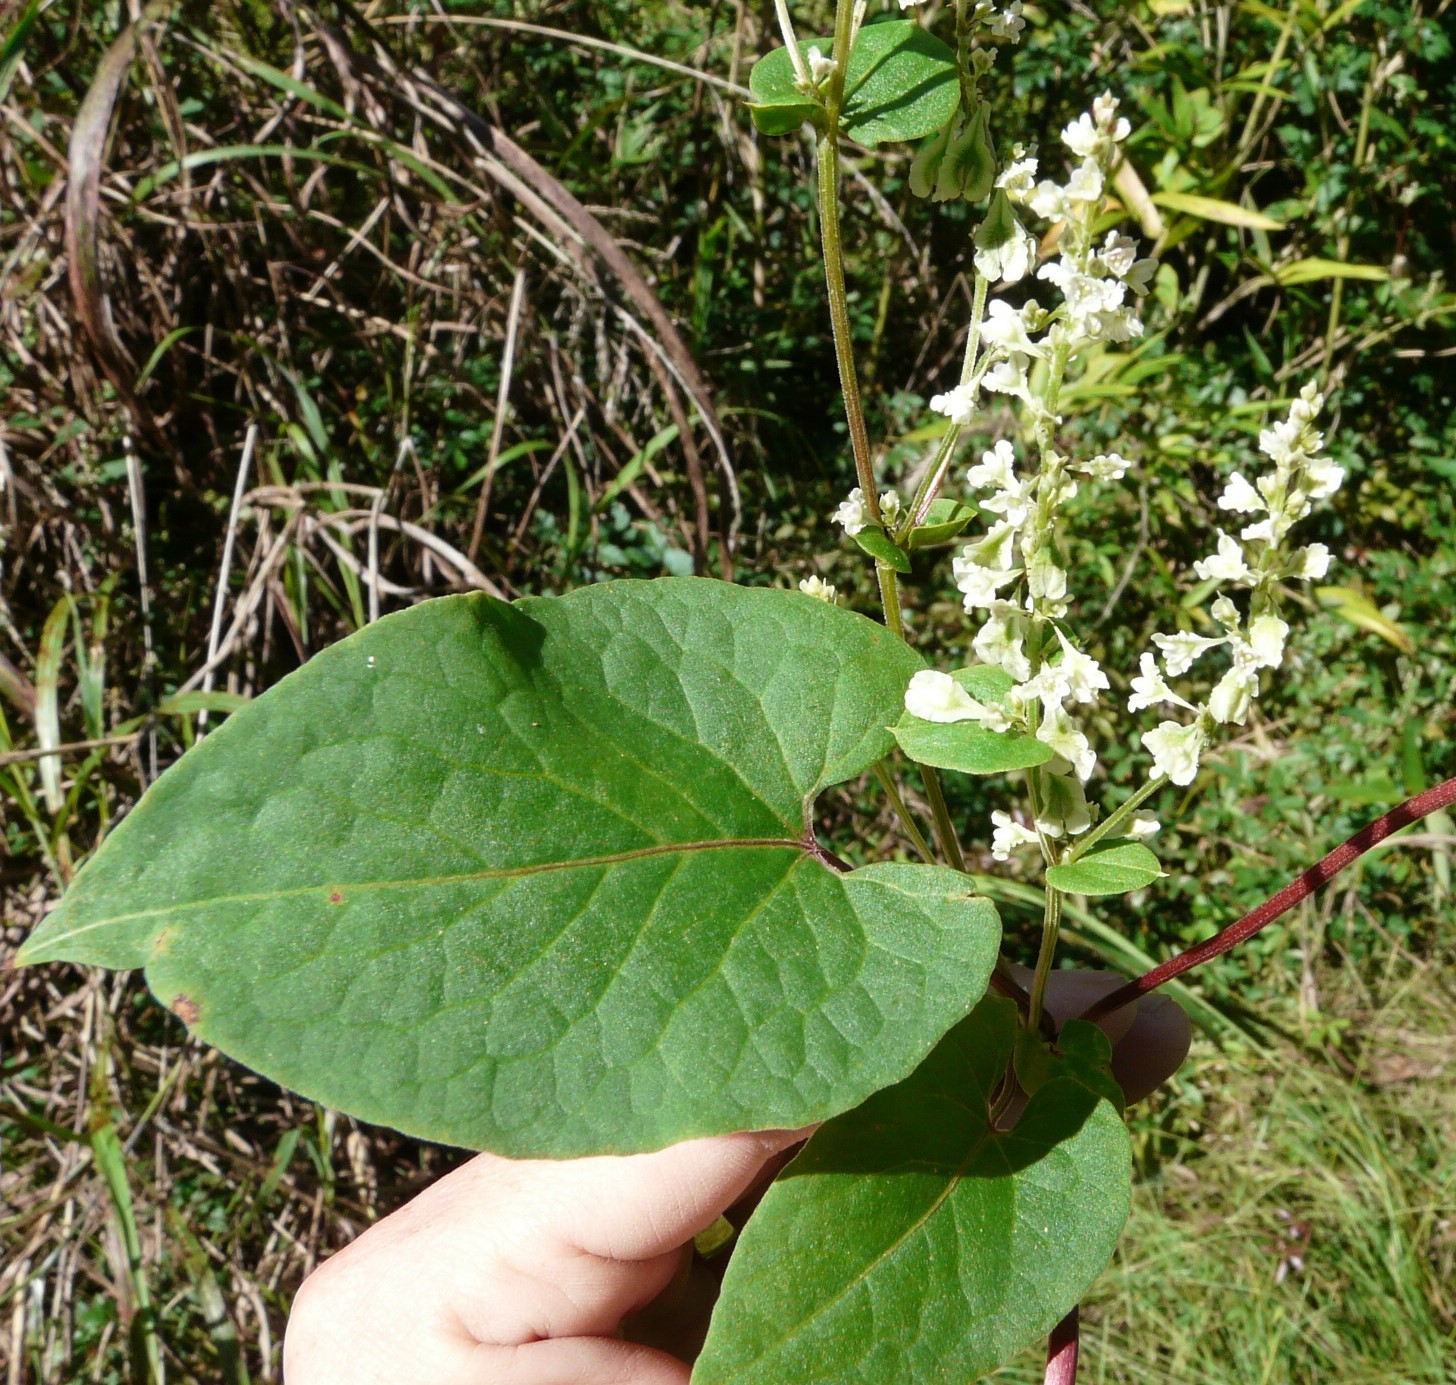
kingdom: Plantae
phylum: Tracheophyta
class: Magnoliopsida
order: Caryophyllales
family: Polygonaceae
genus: Fallopia
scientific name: Fallopia scandens
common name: Climbing false buckwheat
